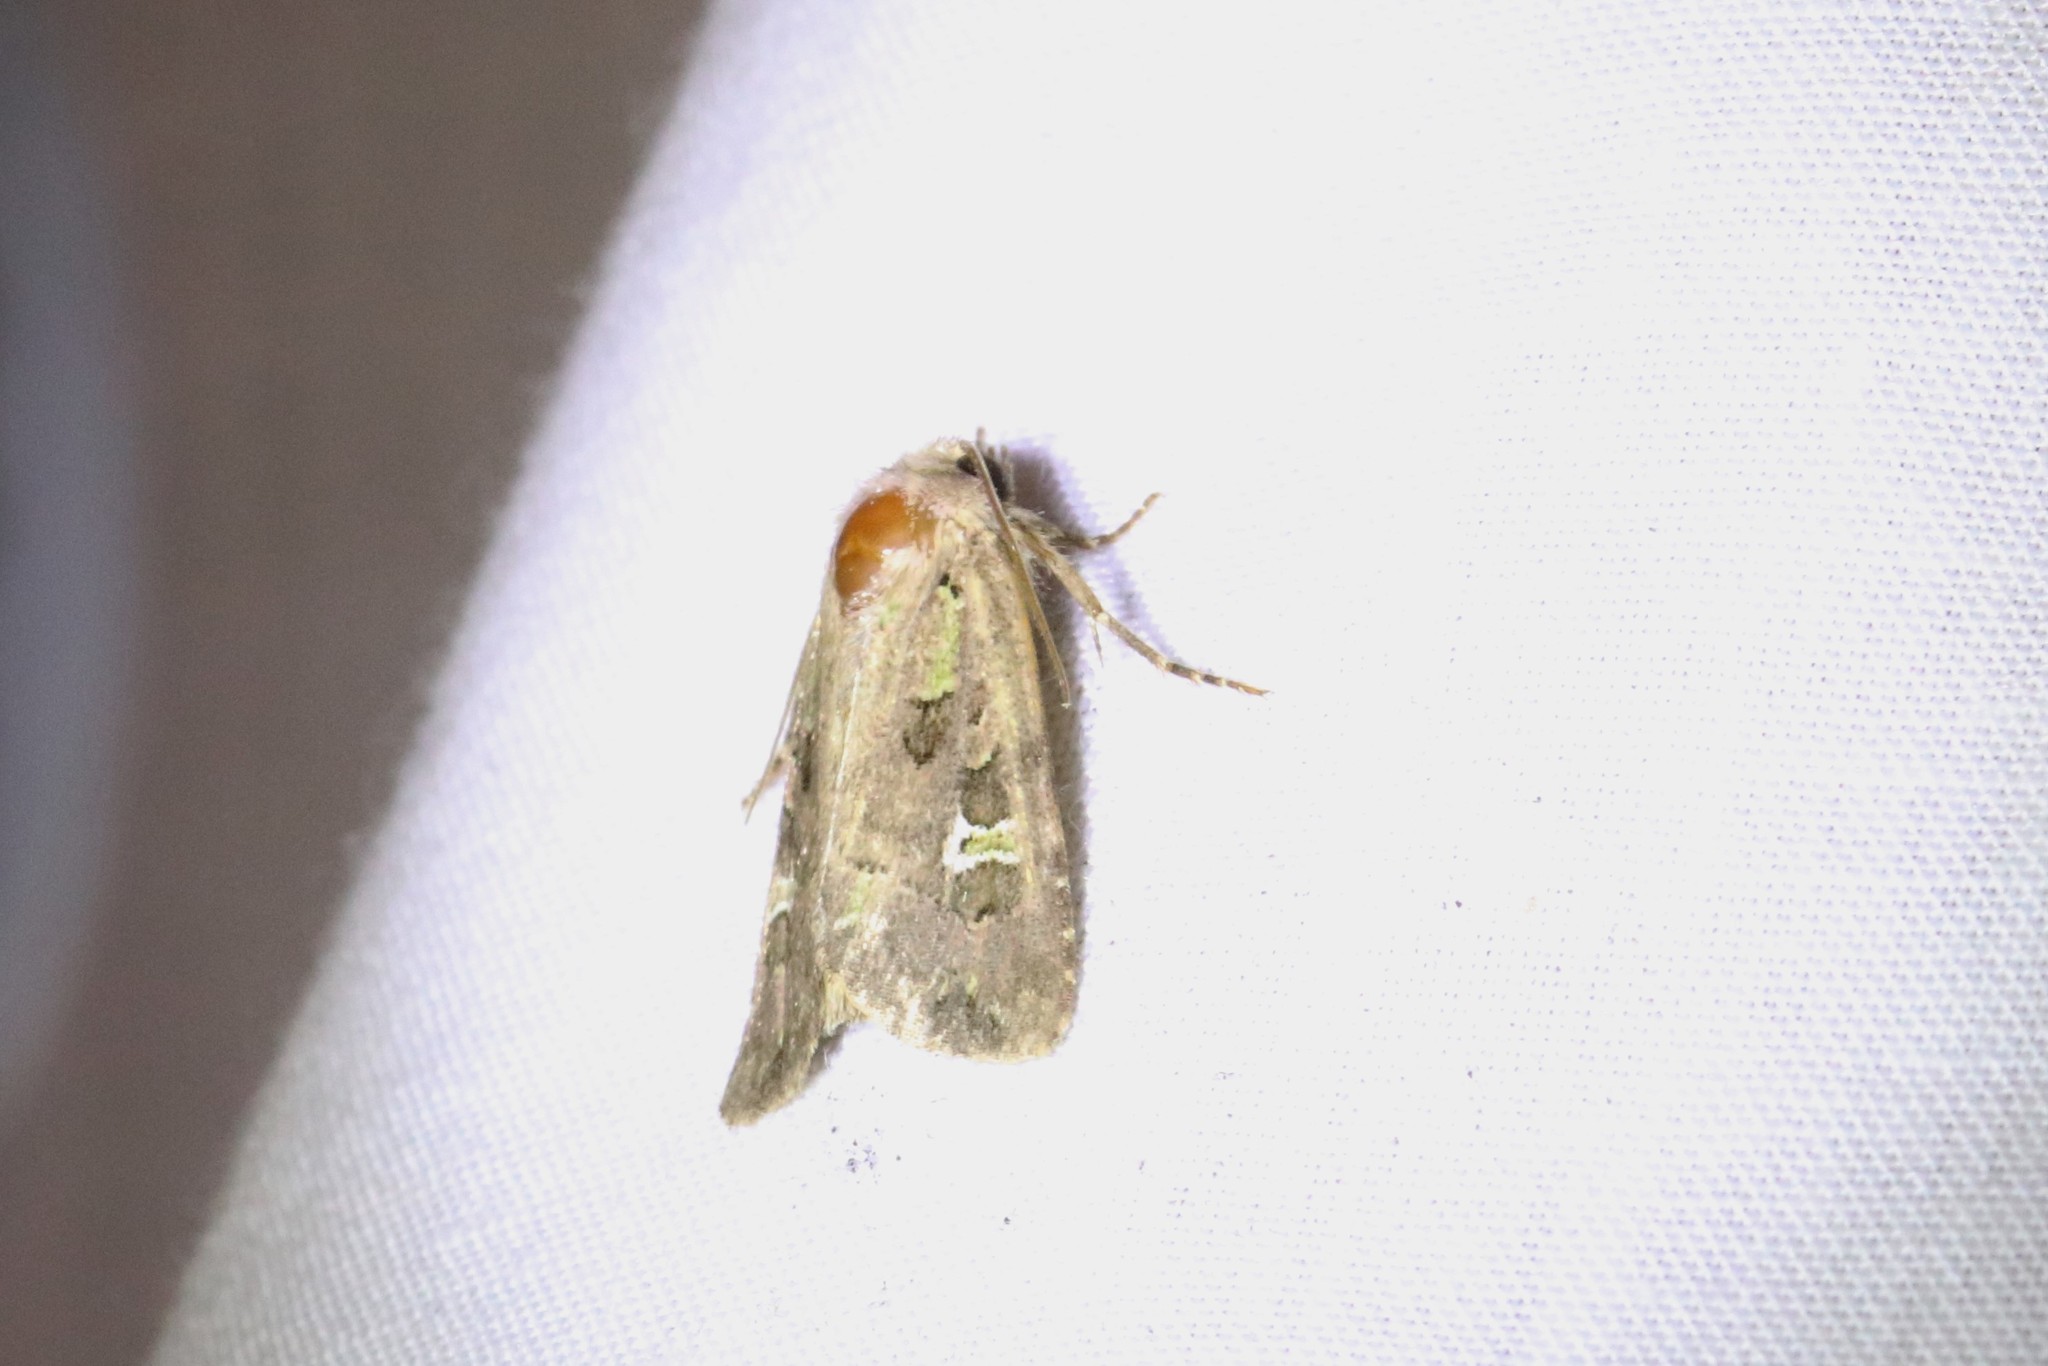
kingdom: Animalia
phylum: Arthropoda
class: Insecta
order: Lepidoptera
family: Noctuidae
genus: Lacinipolia
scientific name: Lacinipolia renigera
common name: Kidney-spotted minor
